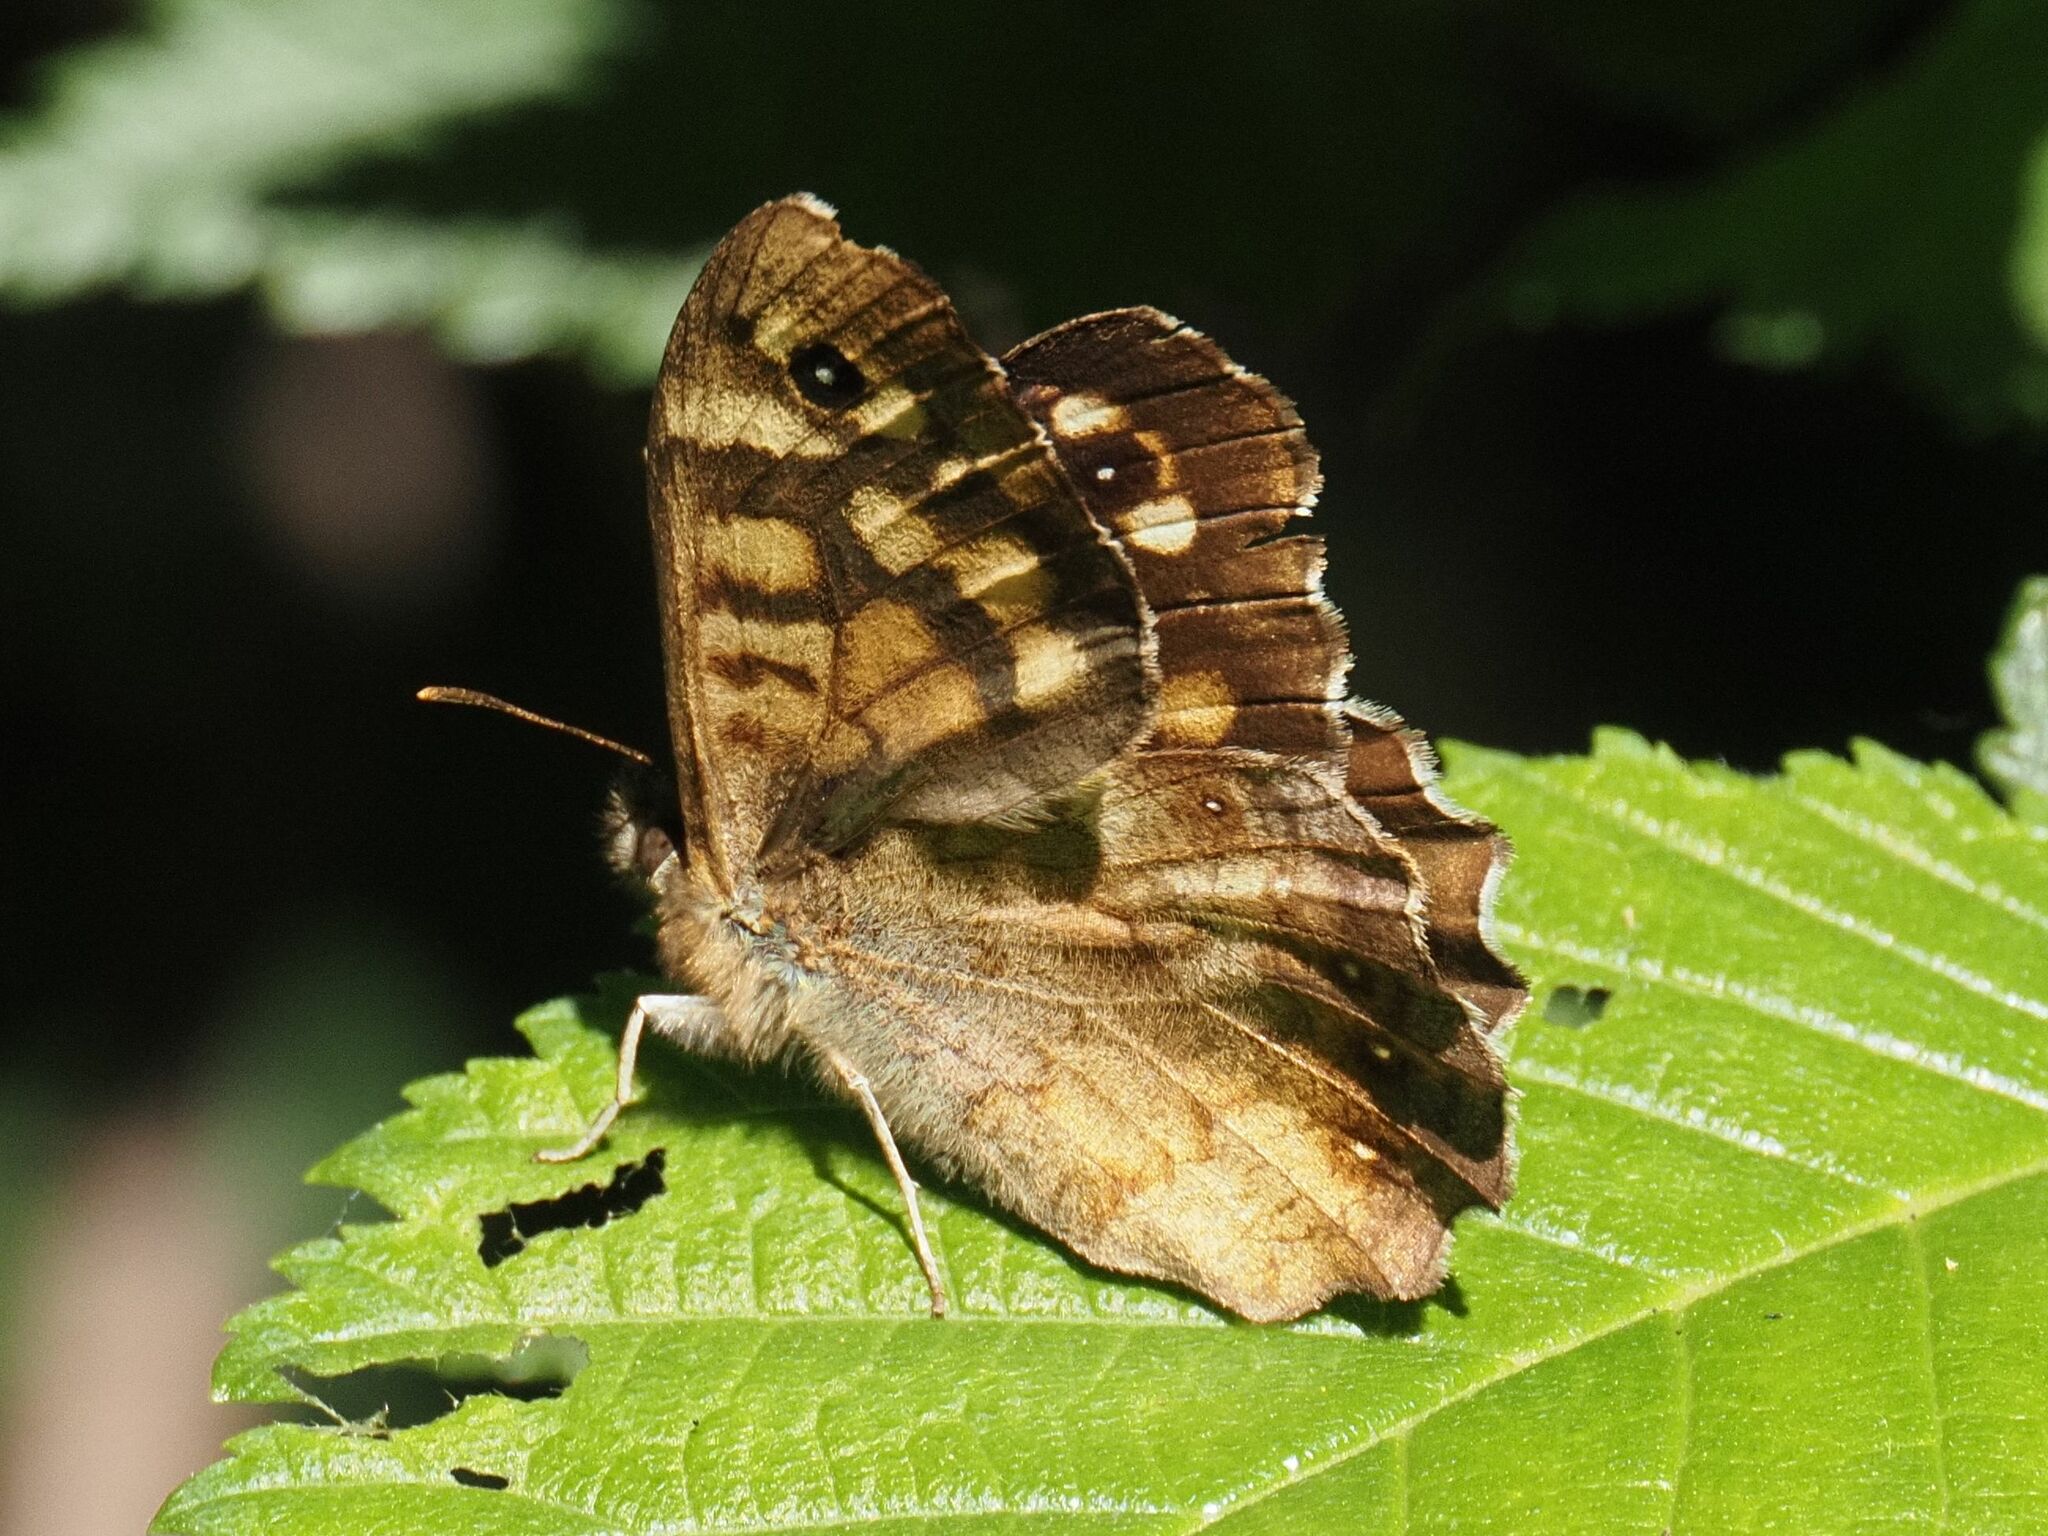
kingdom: Animalia
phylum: Arthropoda
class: Insecta
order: Lepidoptera
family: Nymphalidae
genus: Pararge
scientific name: Pararge aegeria
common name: Speckled wood
